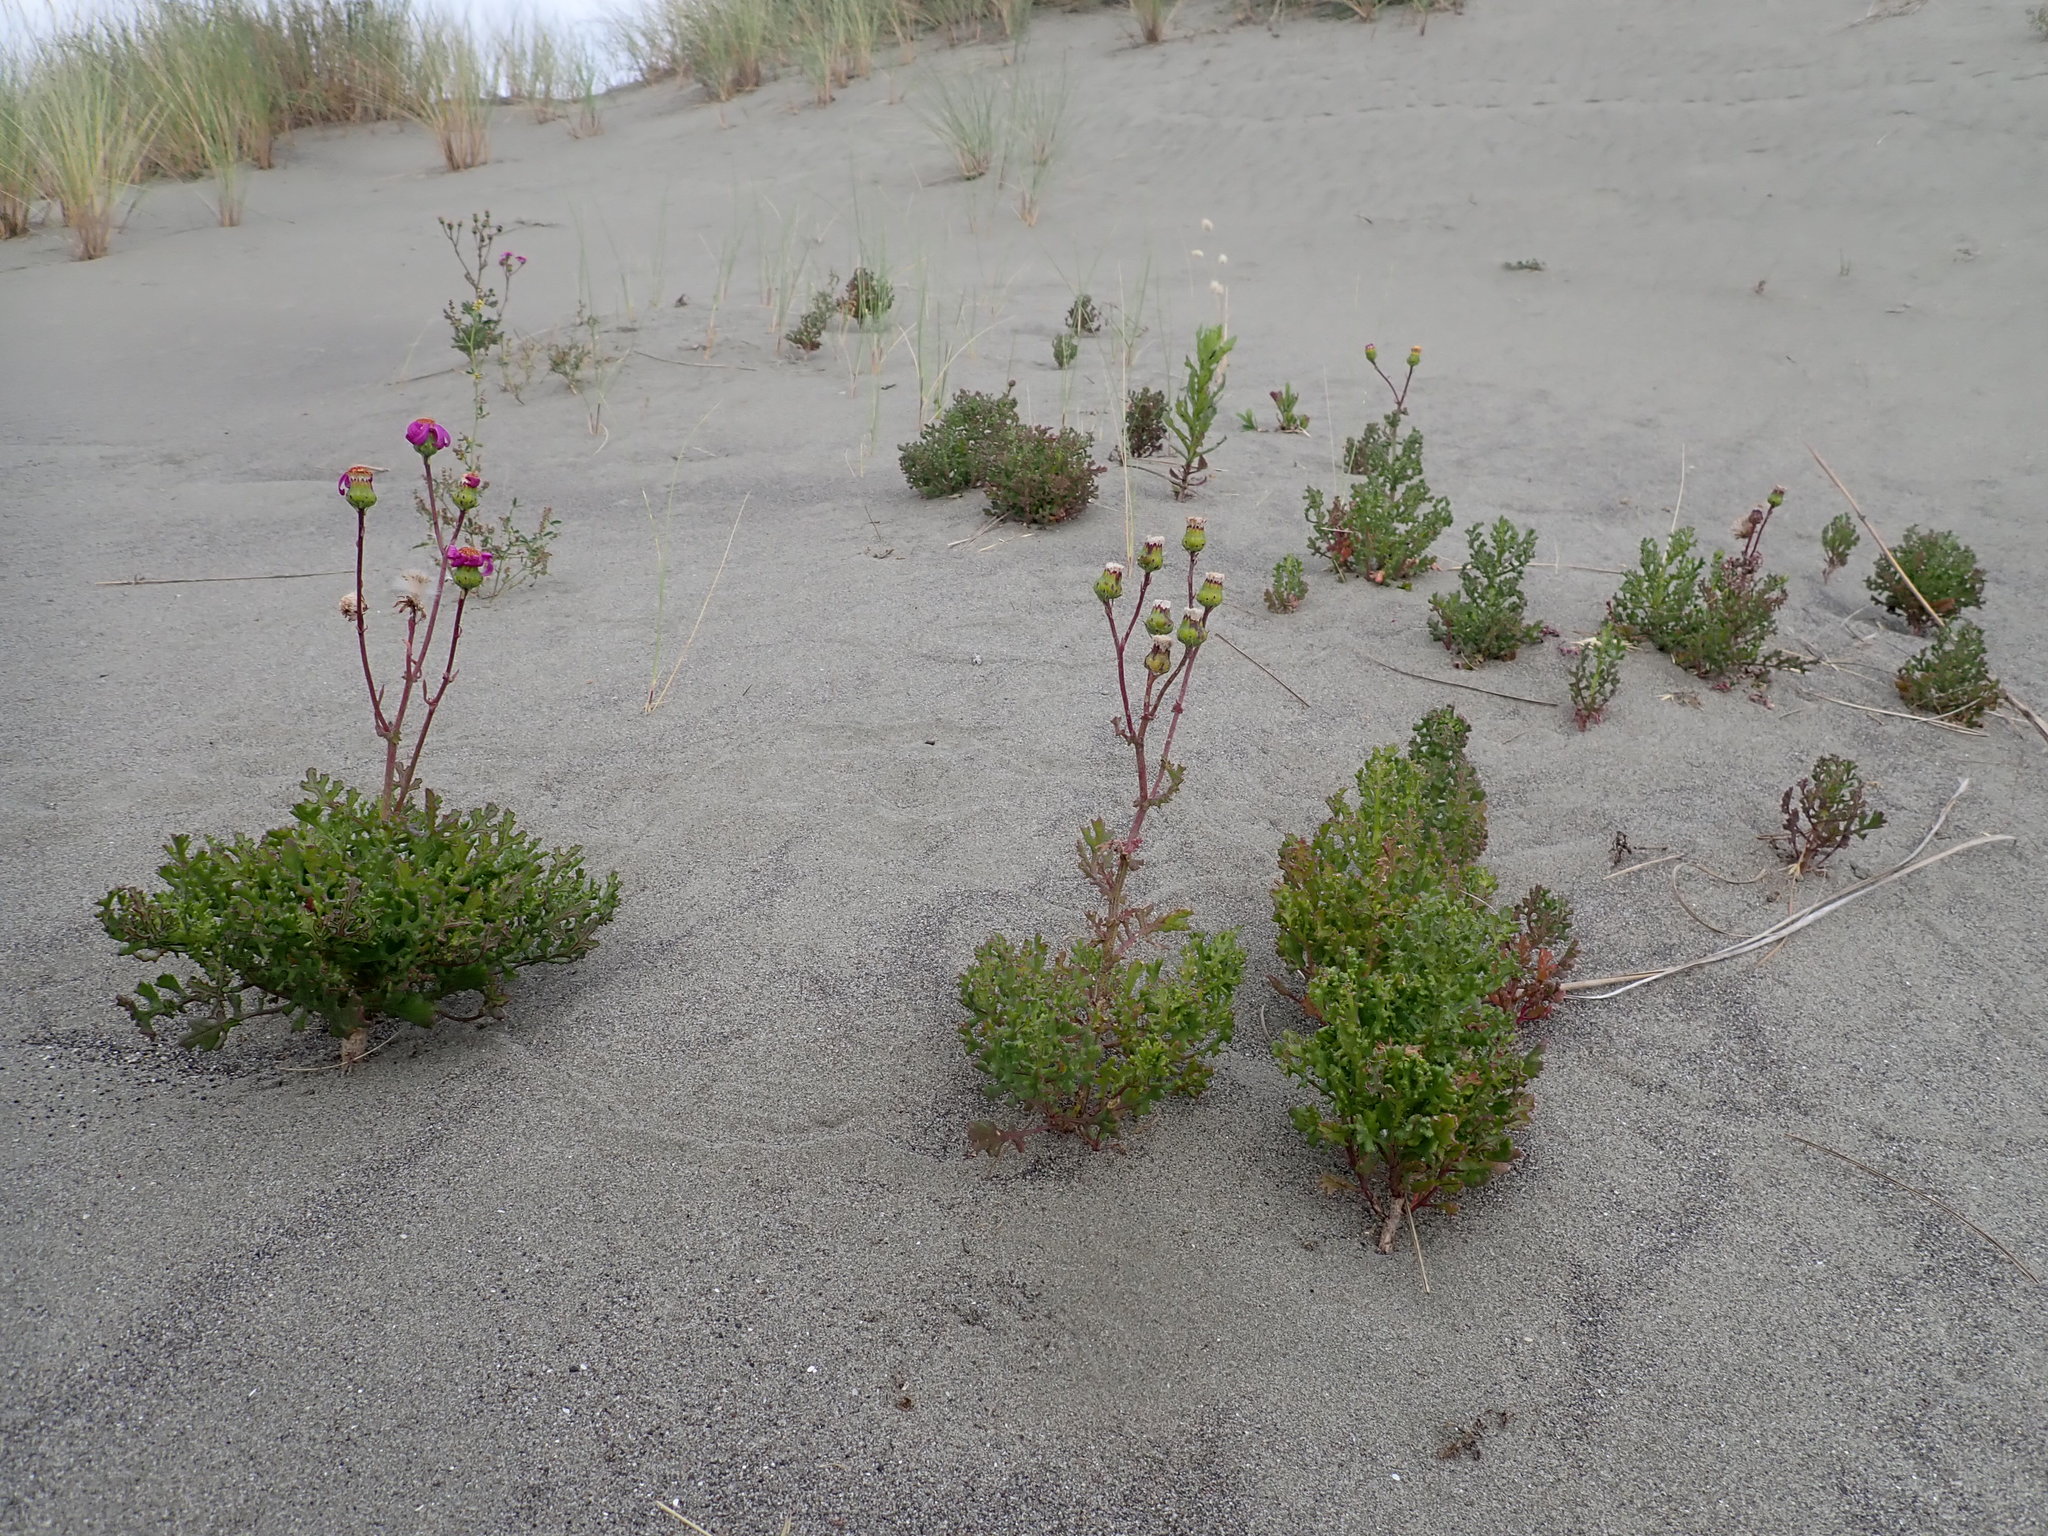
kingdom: Plantae
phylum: Tracheophyta
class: Magnoliopsida
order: Asterales
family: Asteraceae
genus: Senecio
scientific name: Senecio elegans
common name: Purple groundsel
